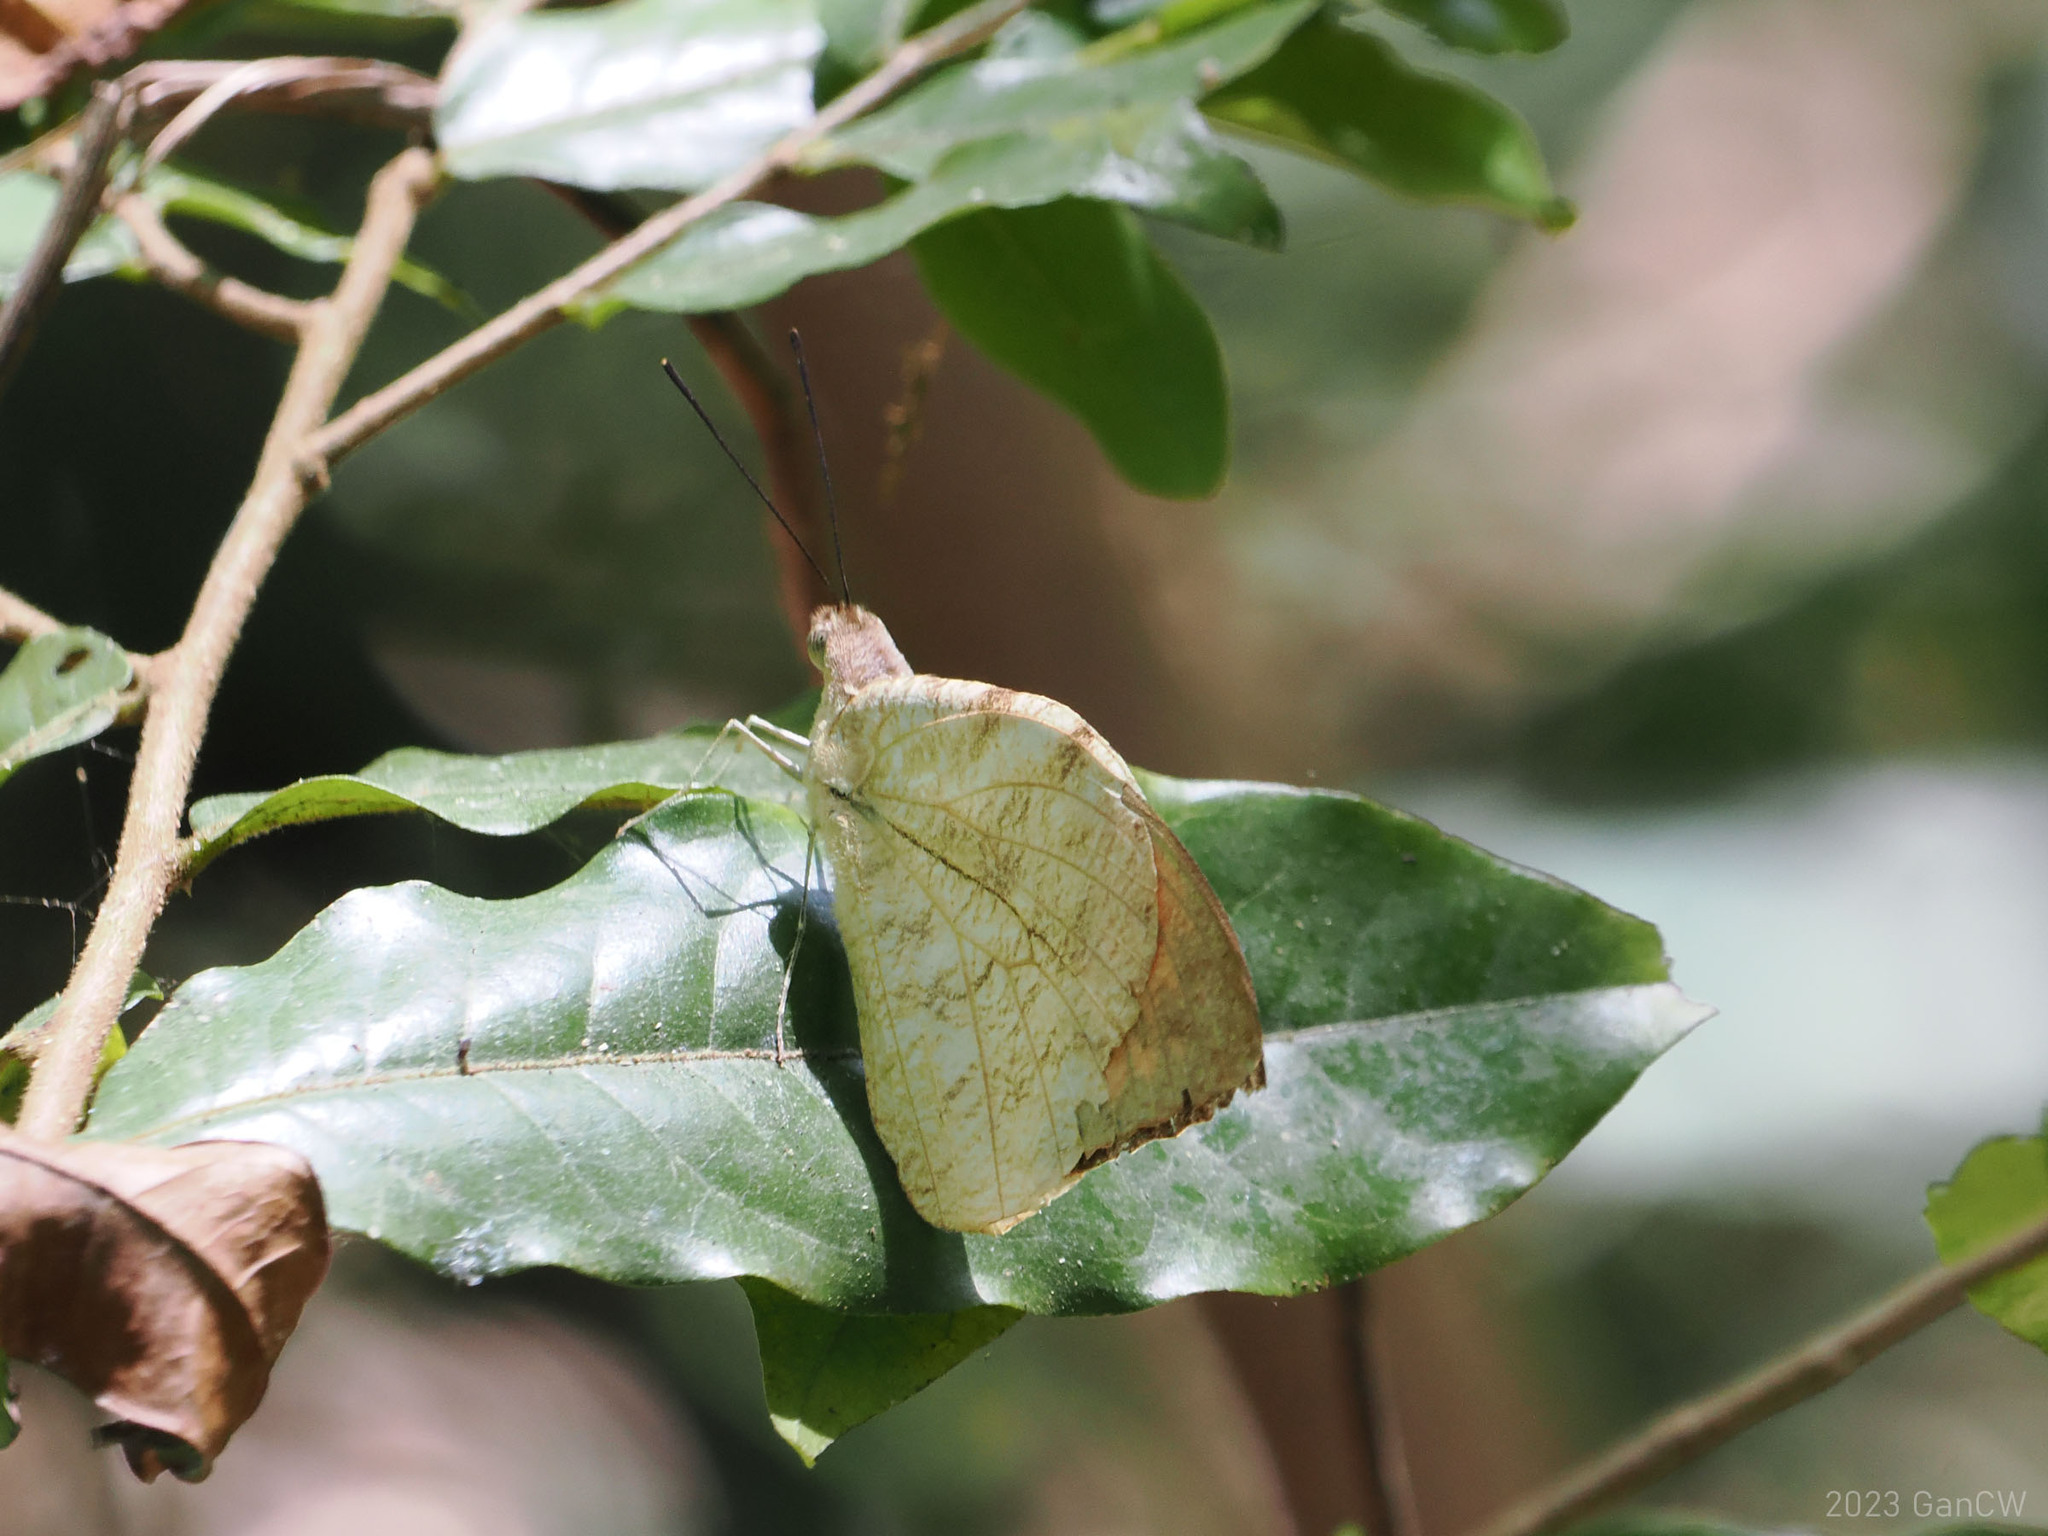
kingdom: Animalia
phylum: Arthropoda
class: Insecta
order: Lepidoptera
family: Pieridae
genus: Hebomoia
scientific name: Hebomoia glaucippe
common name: Great orange tip
